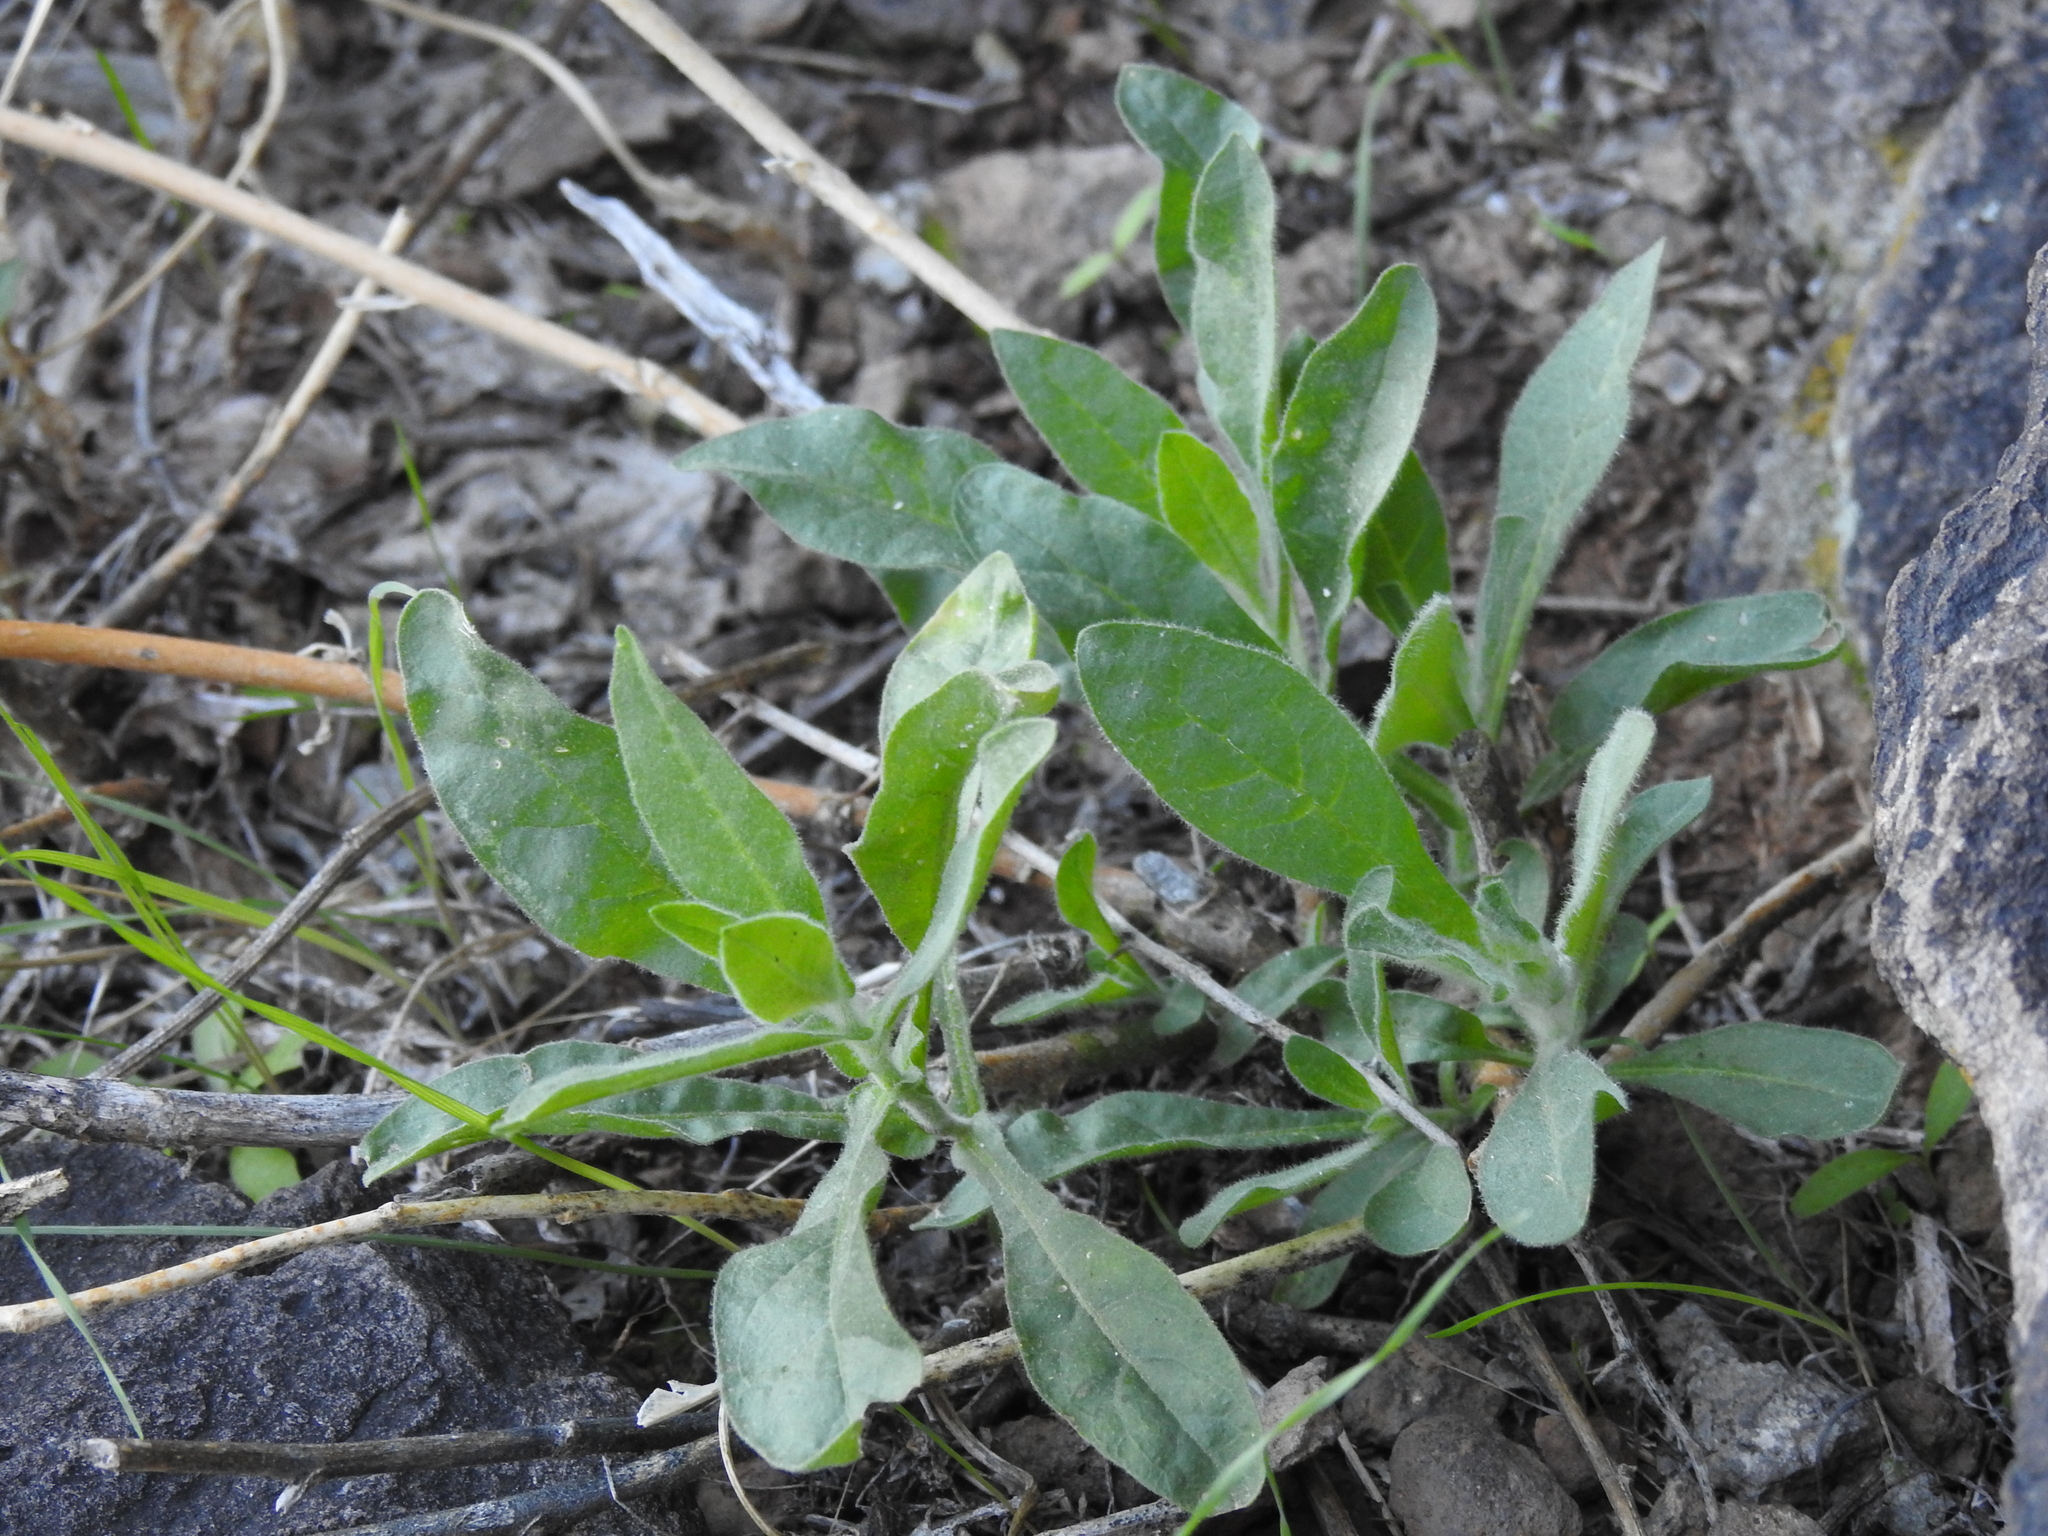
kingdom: Plantae
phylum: Tracheophyta
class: Magnoliopsida
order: Solanales
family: Solanaceae
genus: Nicotiana
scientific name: Nicotiana obtusifolia
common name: Desert tobacco
